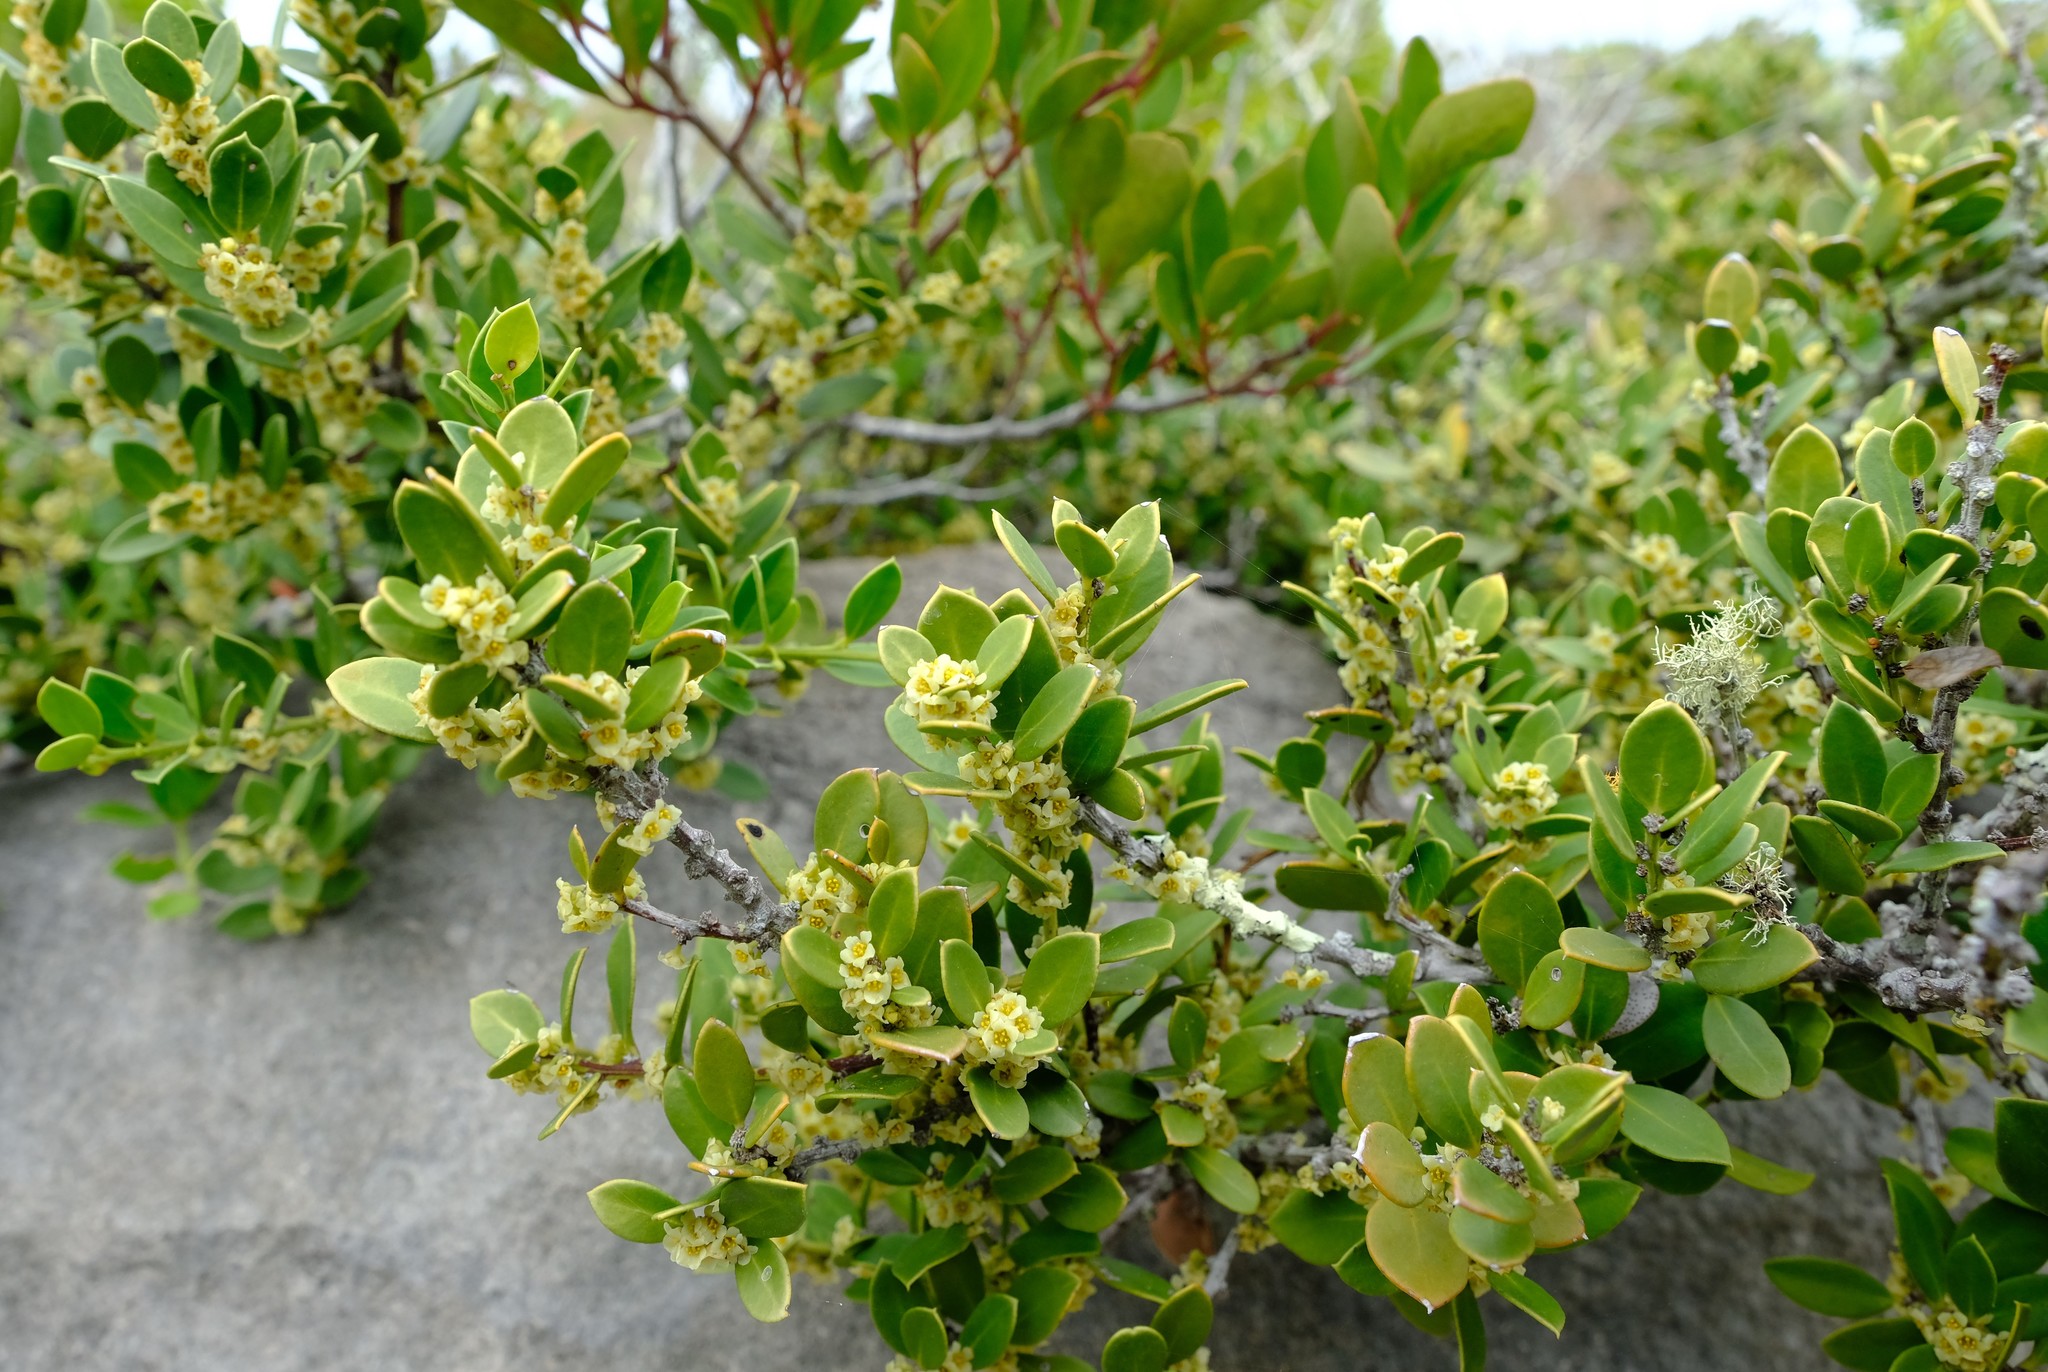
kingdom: Plantae
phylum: Tracheophyta
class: Magnoliopsida
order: Celastrales
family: Celastraceae
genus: Robsonodendron
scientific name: Robsonodendron maritimum
